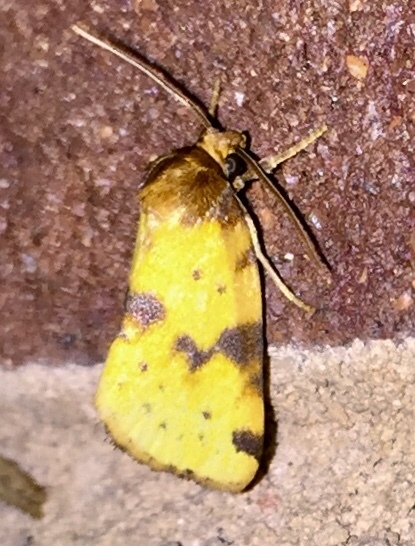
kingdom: Animalia
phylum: Arthropoda
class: Insecta
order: Lepidoptera
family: Noctuidae
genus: Azenia
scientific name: Azenia obtusa
